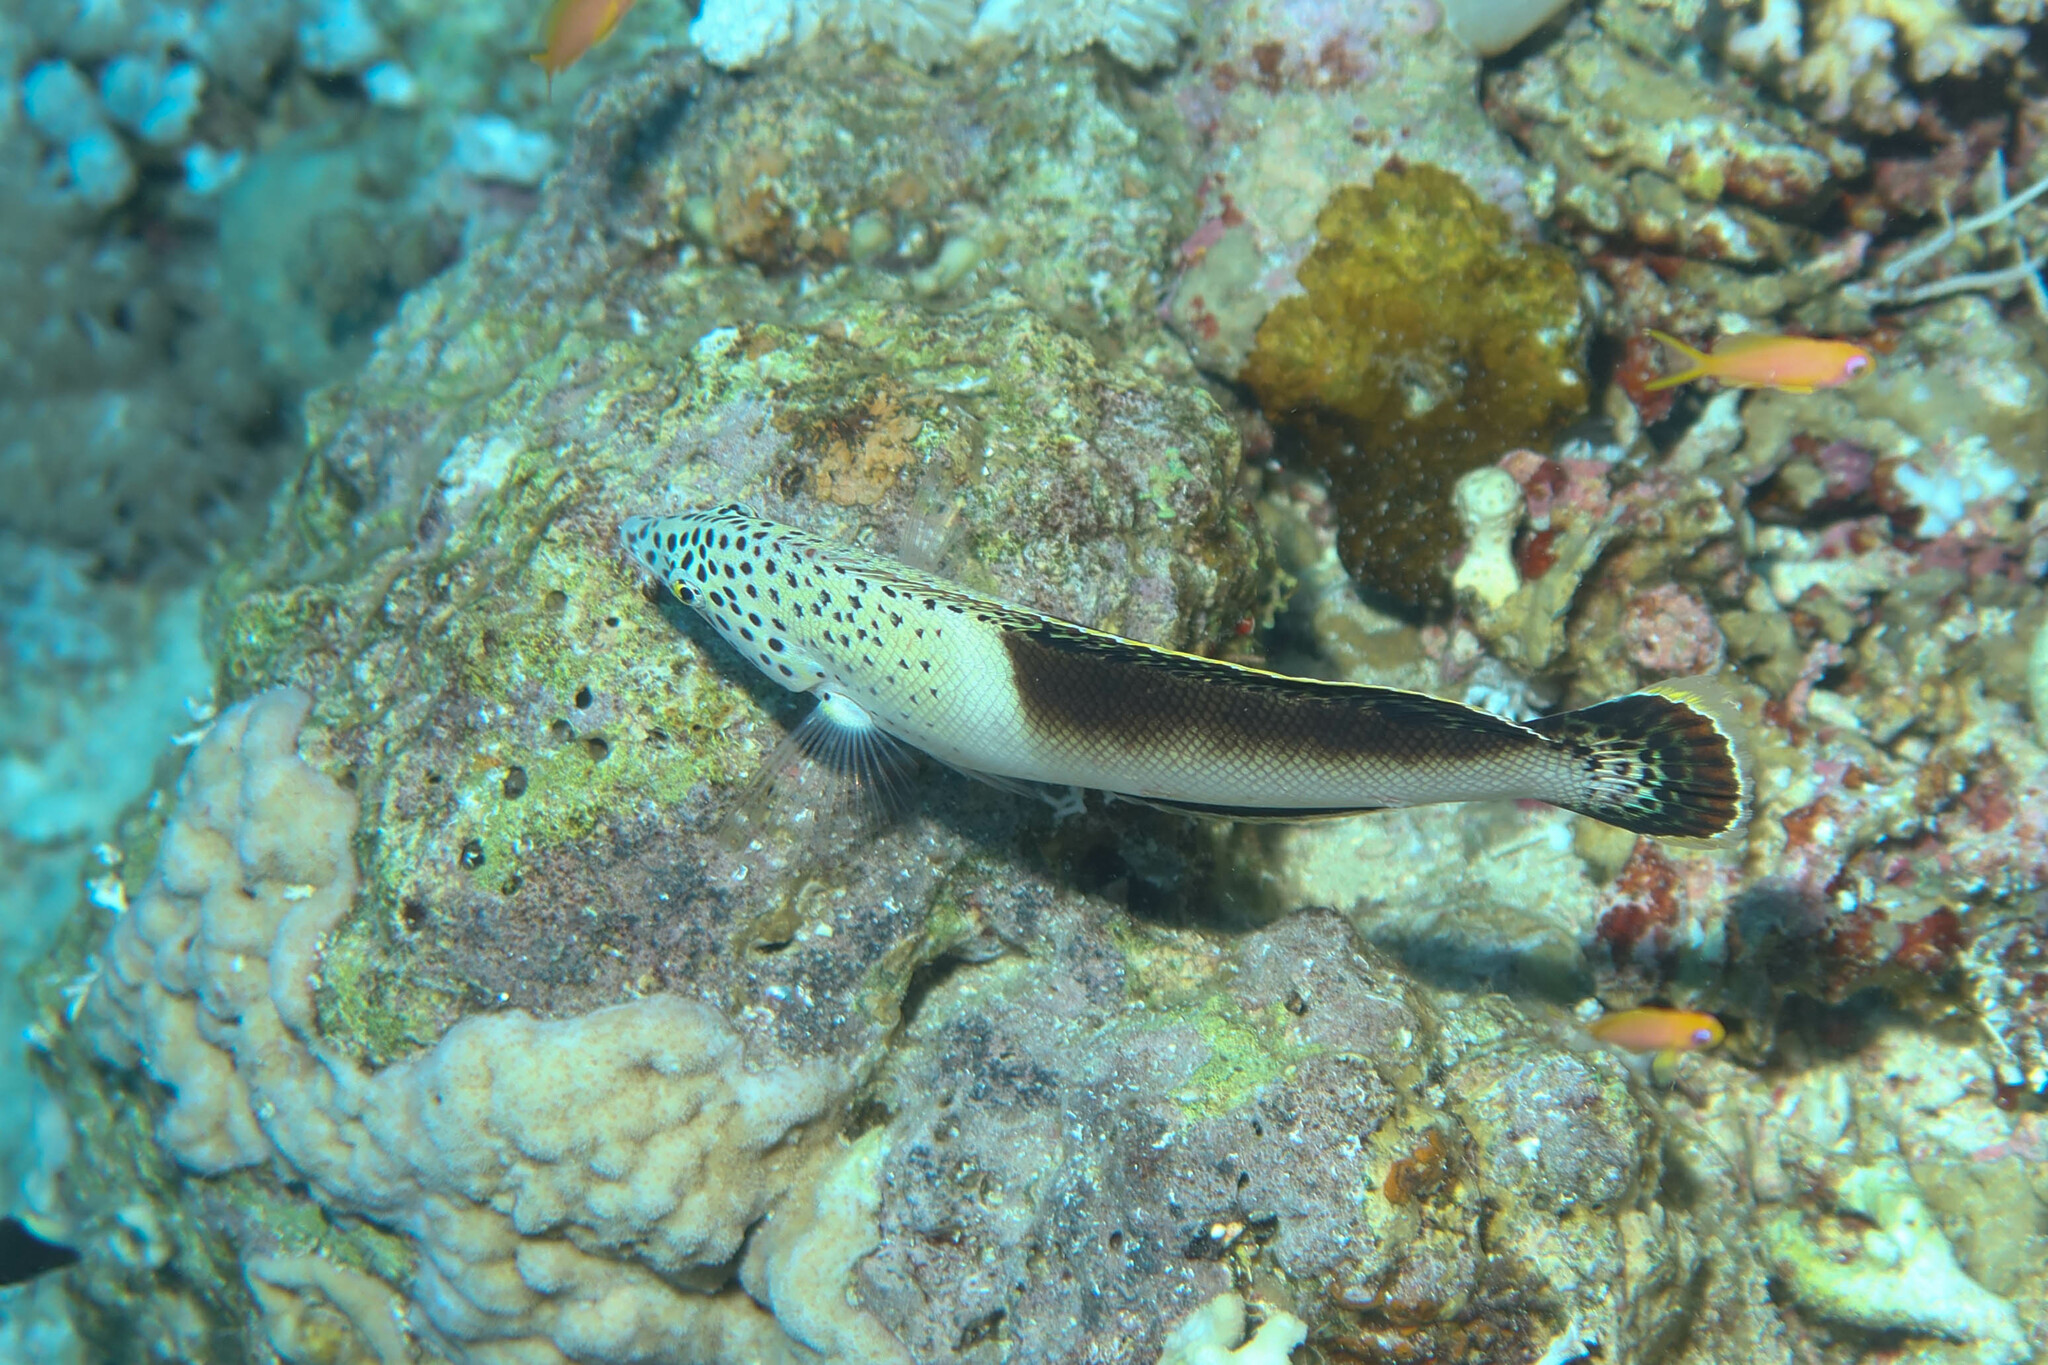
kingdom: Animalia
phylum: Chordata
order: Perciformes
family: Labridae
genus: Coris
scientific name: Coris aygula
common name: Clown coris
